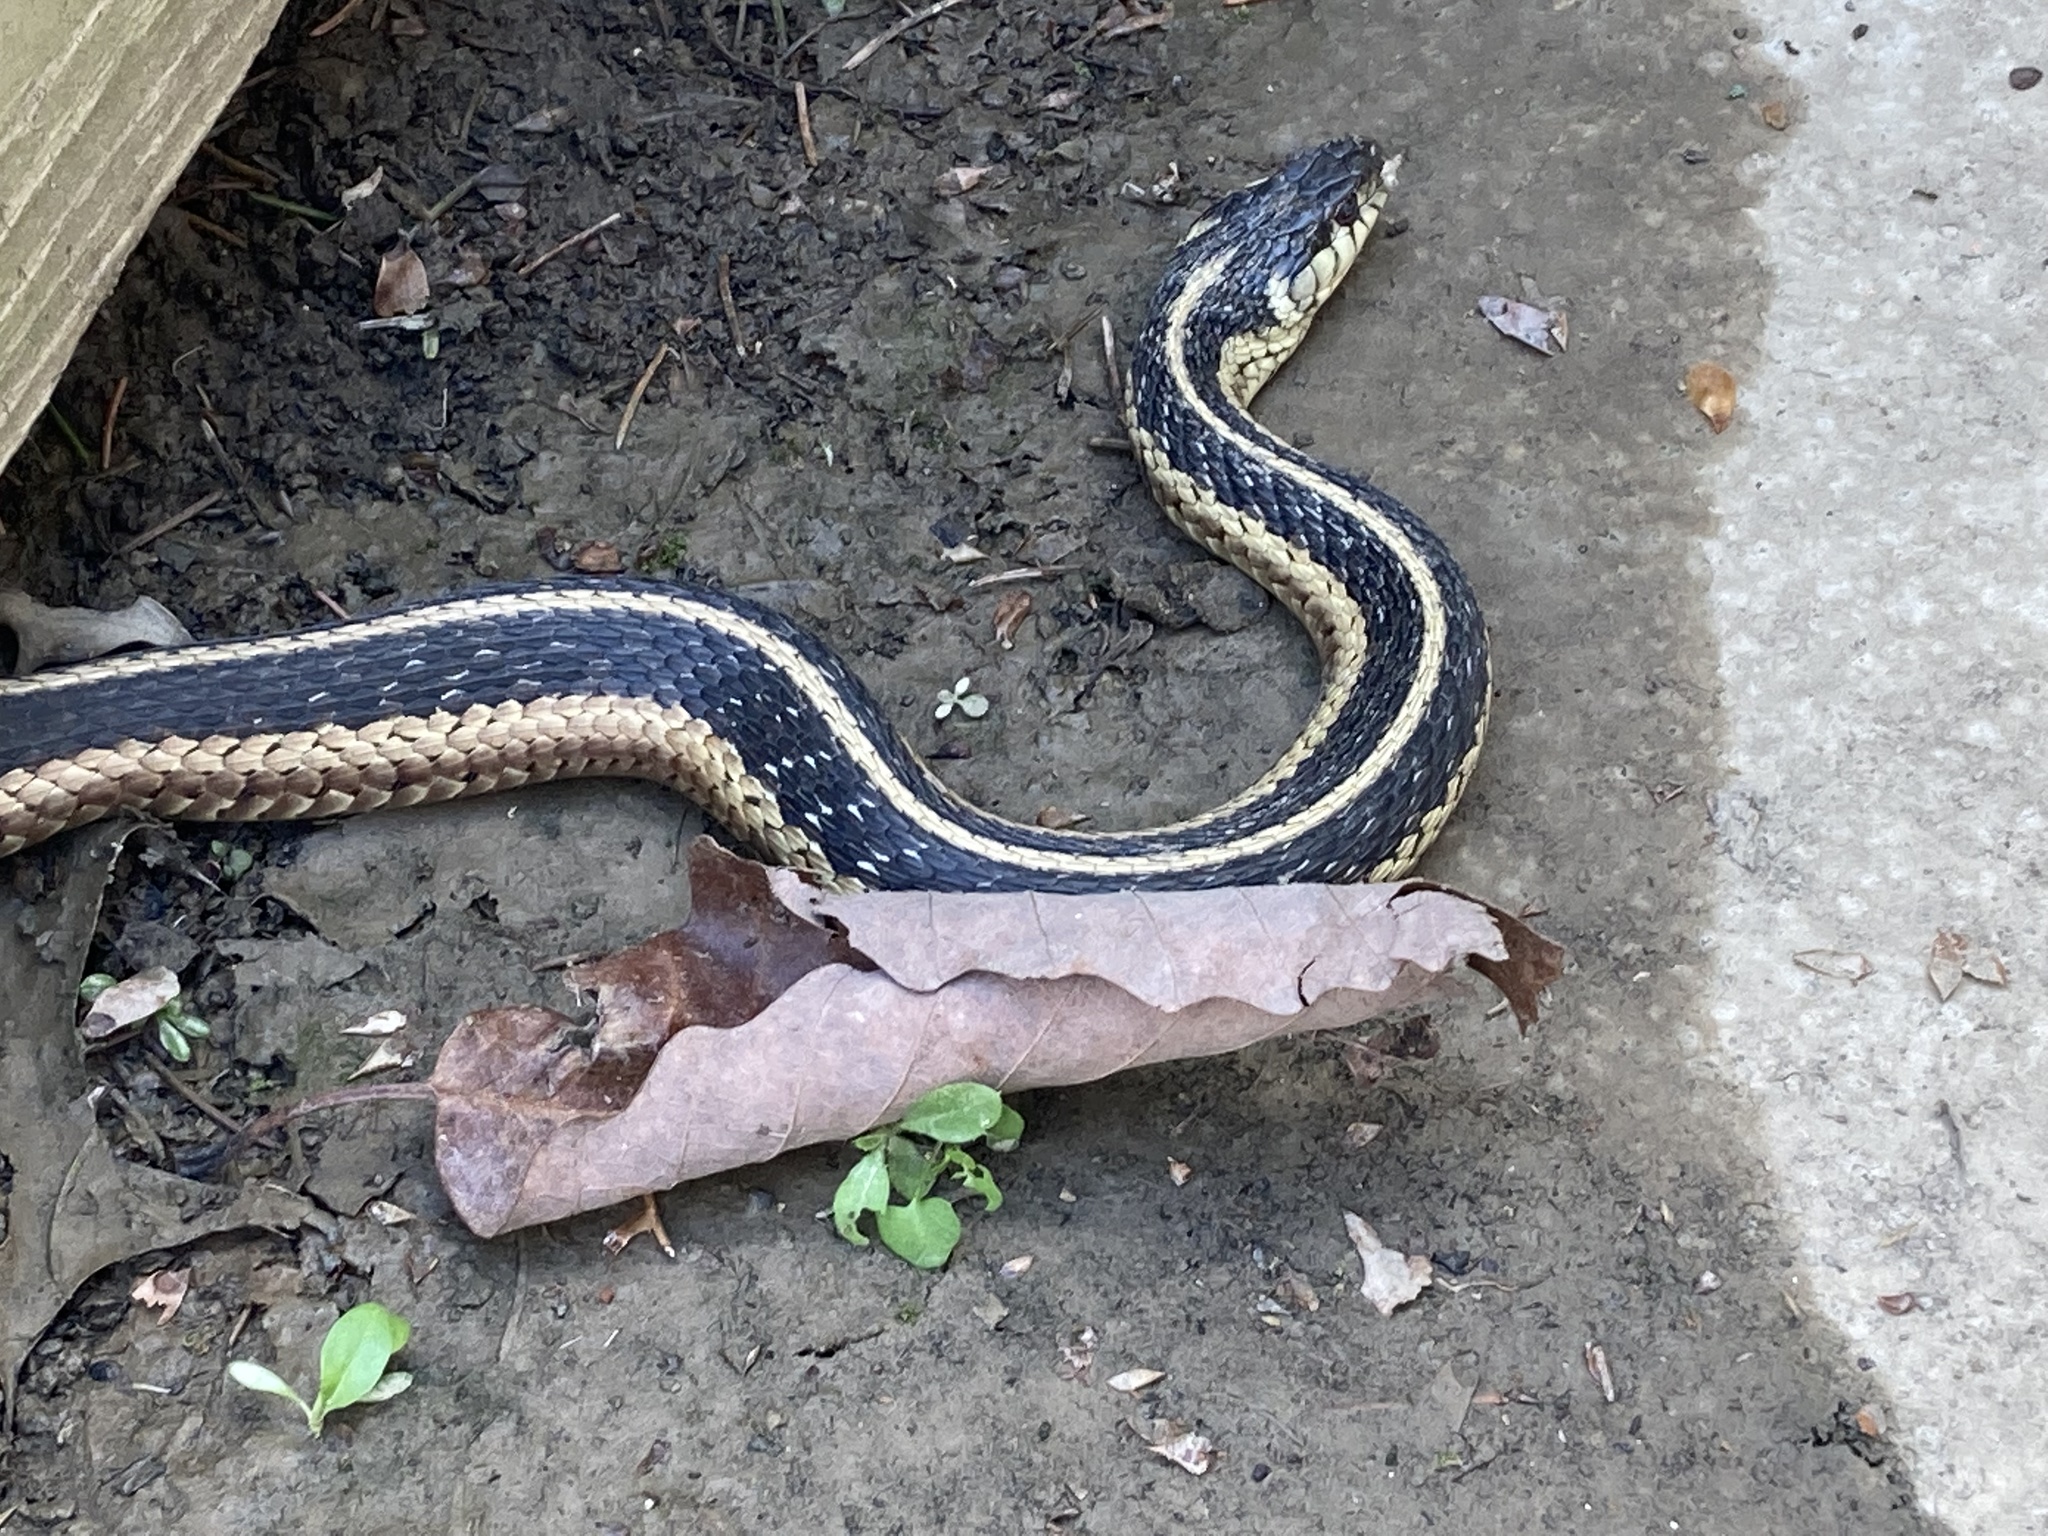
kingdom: Animalia
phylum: Chordata
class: Squamata
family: Colubridae
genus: Thamnophis
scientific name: Thamnophis sirtalis
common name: Common garter snake
